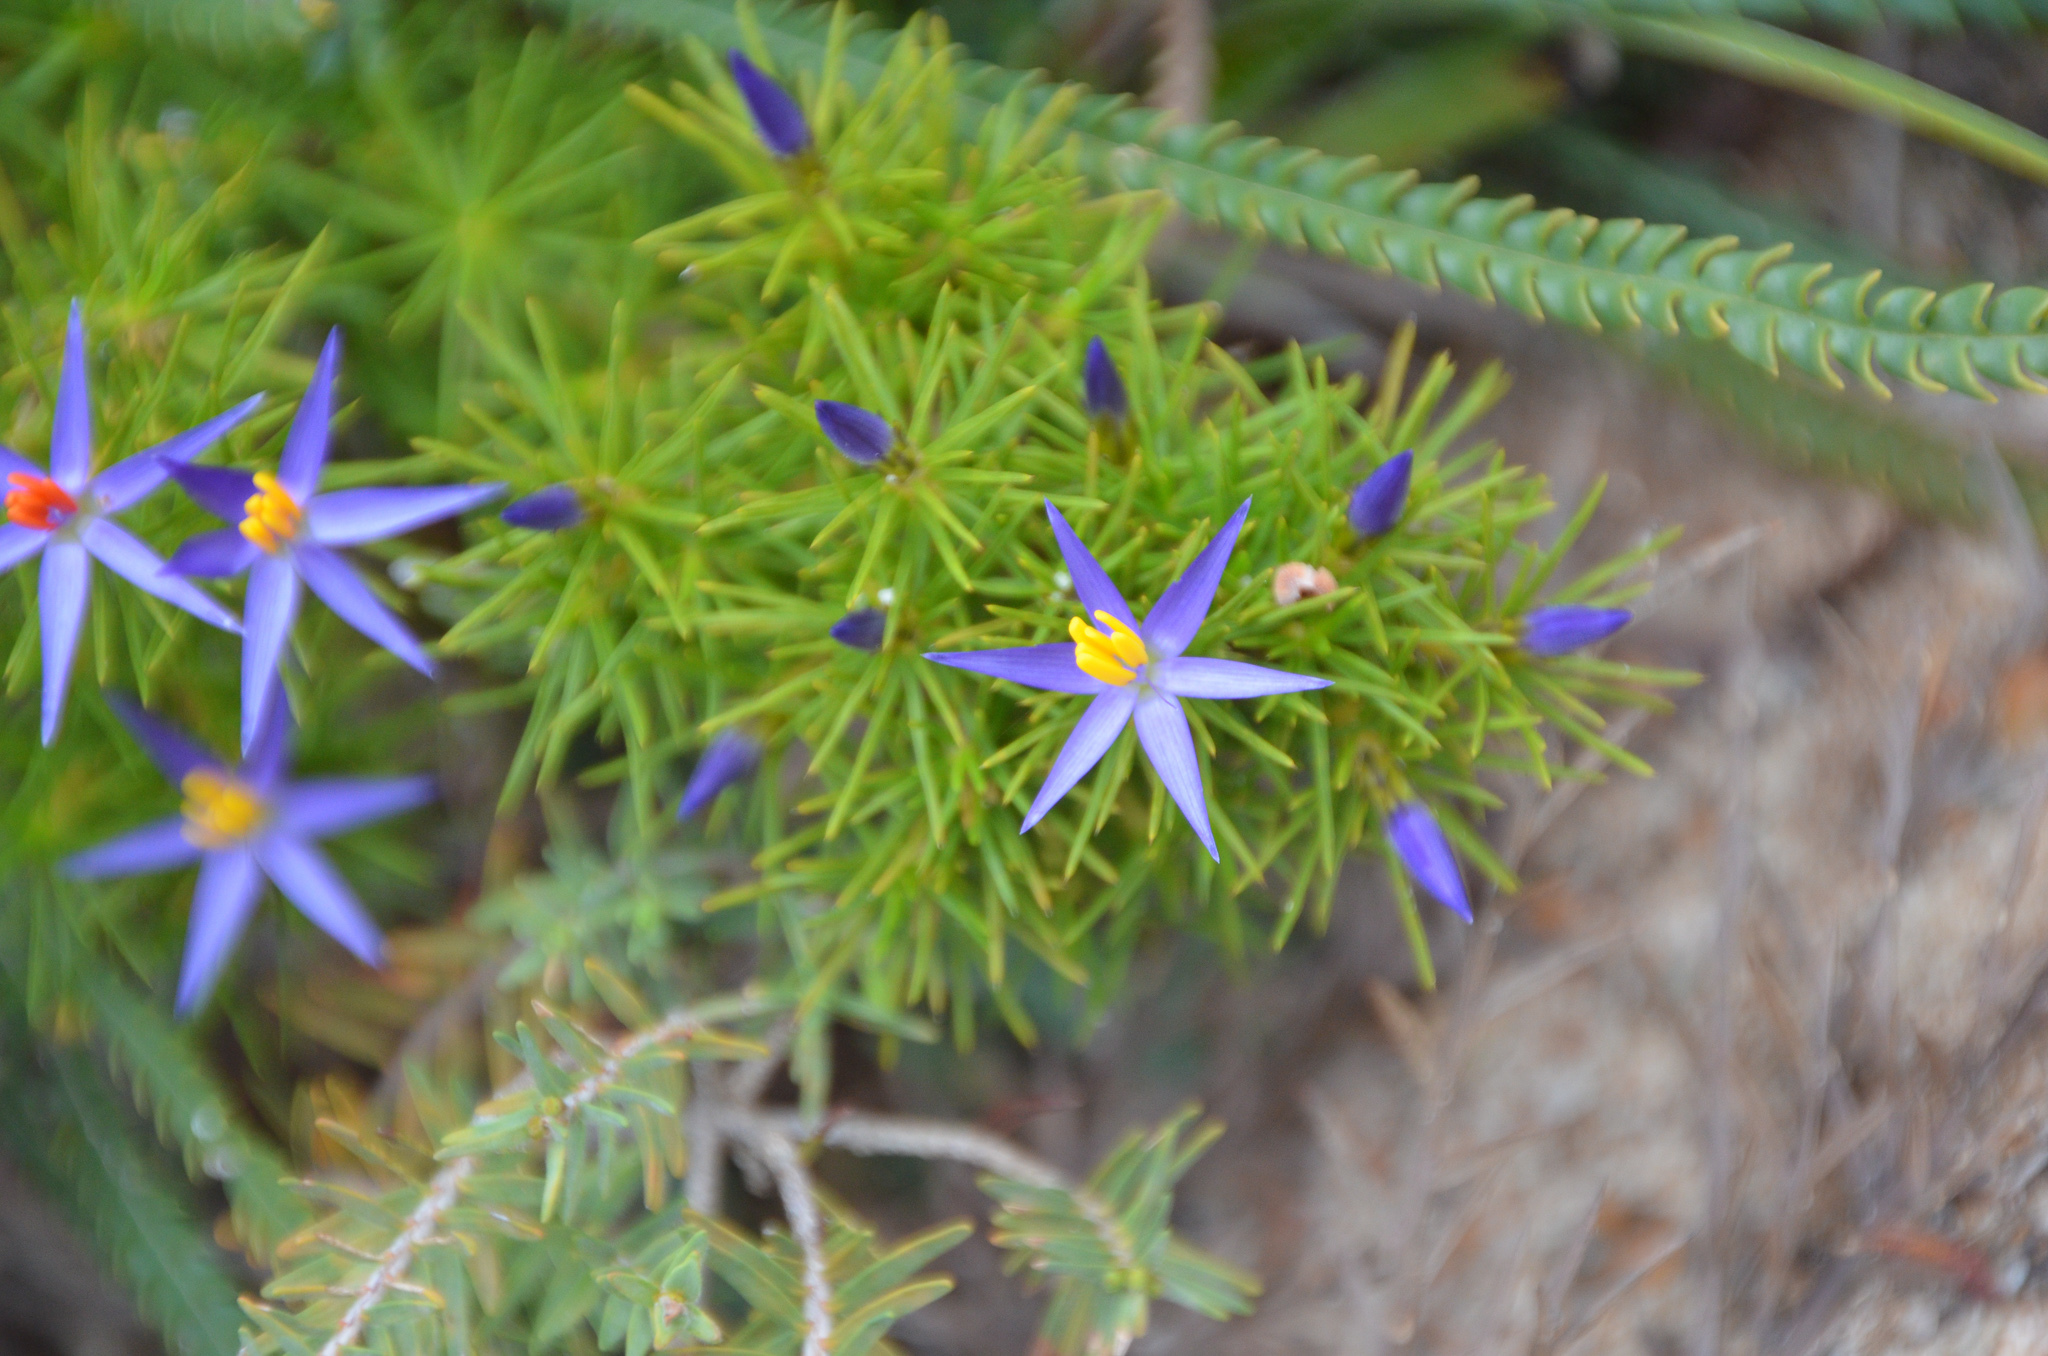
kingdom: Plantae
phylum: Tracheophyta
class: Liliopsida
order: Arecales
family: Dasypogonaceae
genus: Calectasia
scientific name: Calectasia narragara
